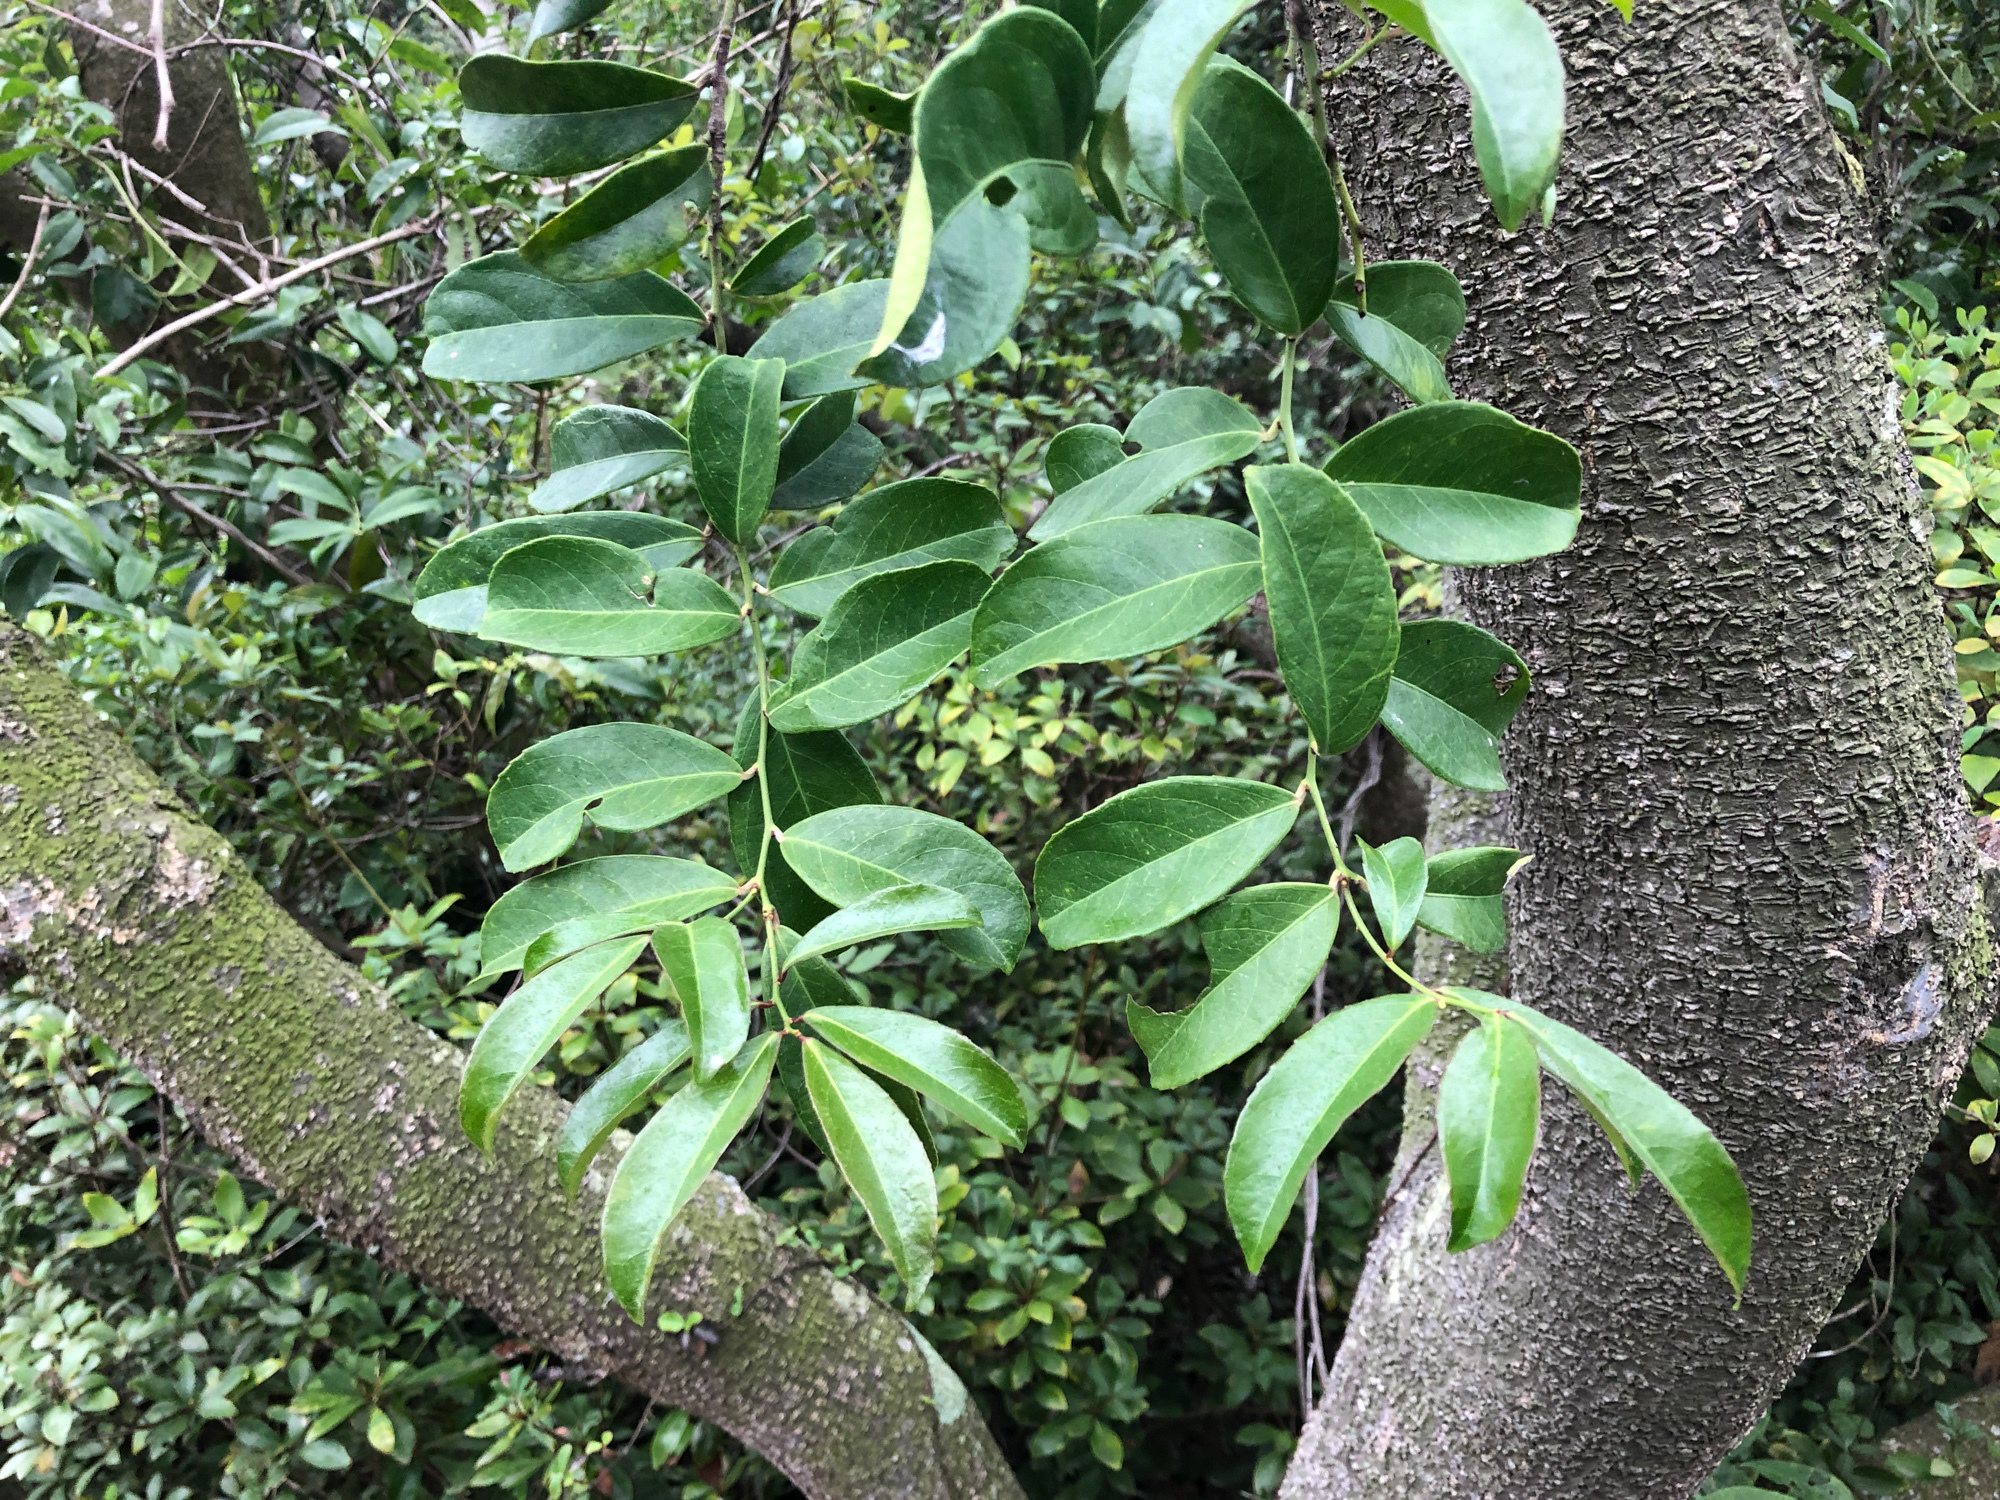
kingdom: Plantae
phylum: Tracheophyta
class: Magnoliopsida
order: Celastrales
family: Celastraceae
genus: Celastrus
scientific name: Celastrus hindsii
